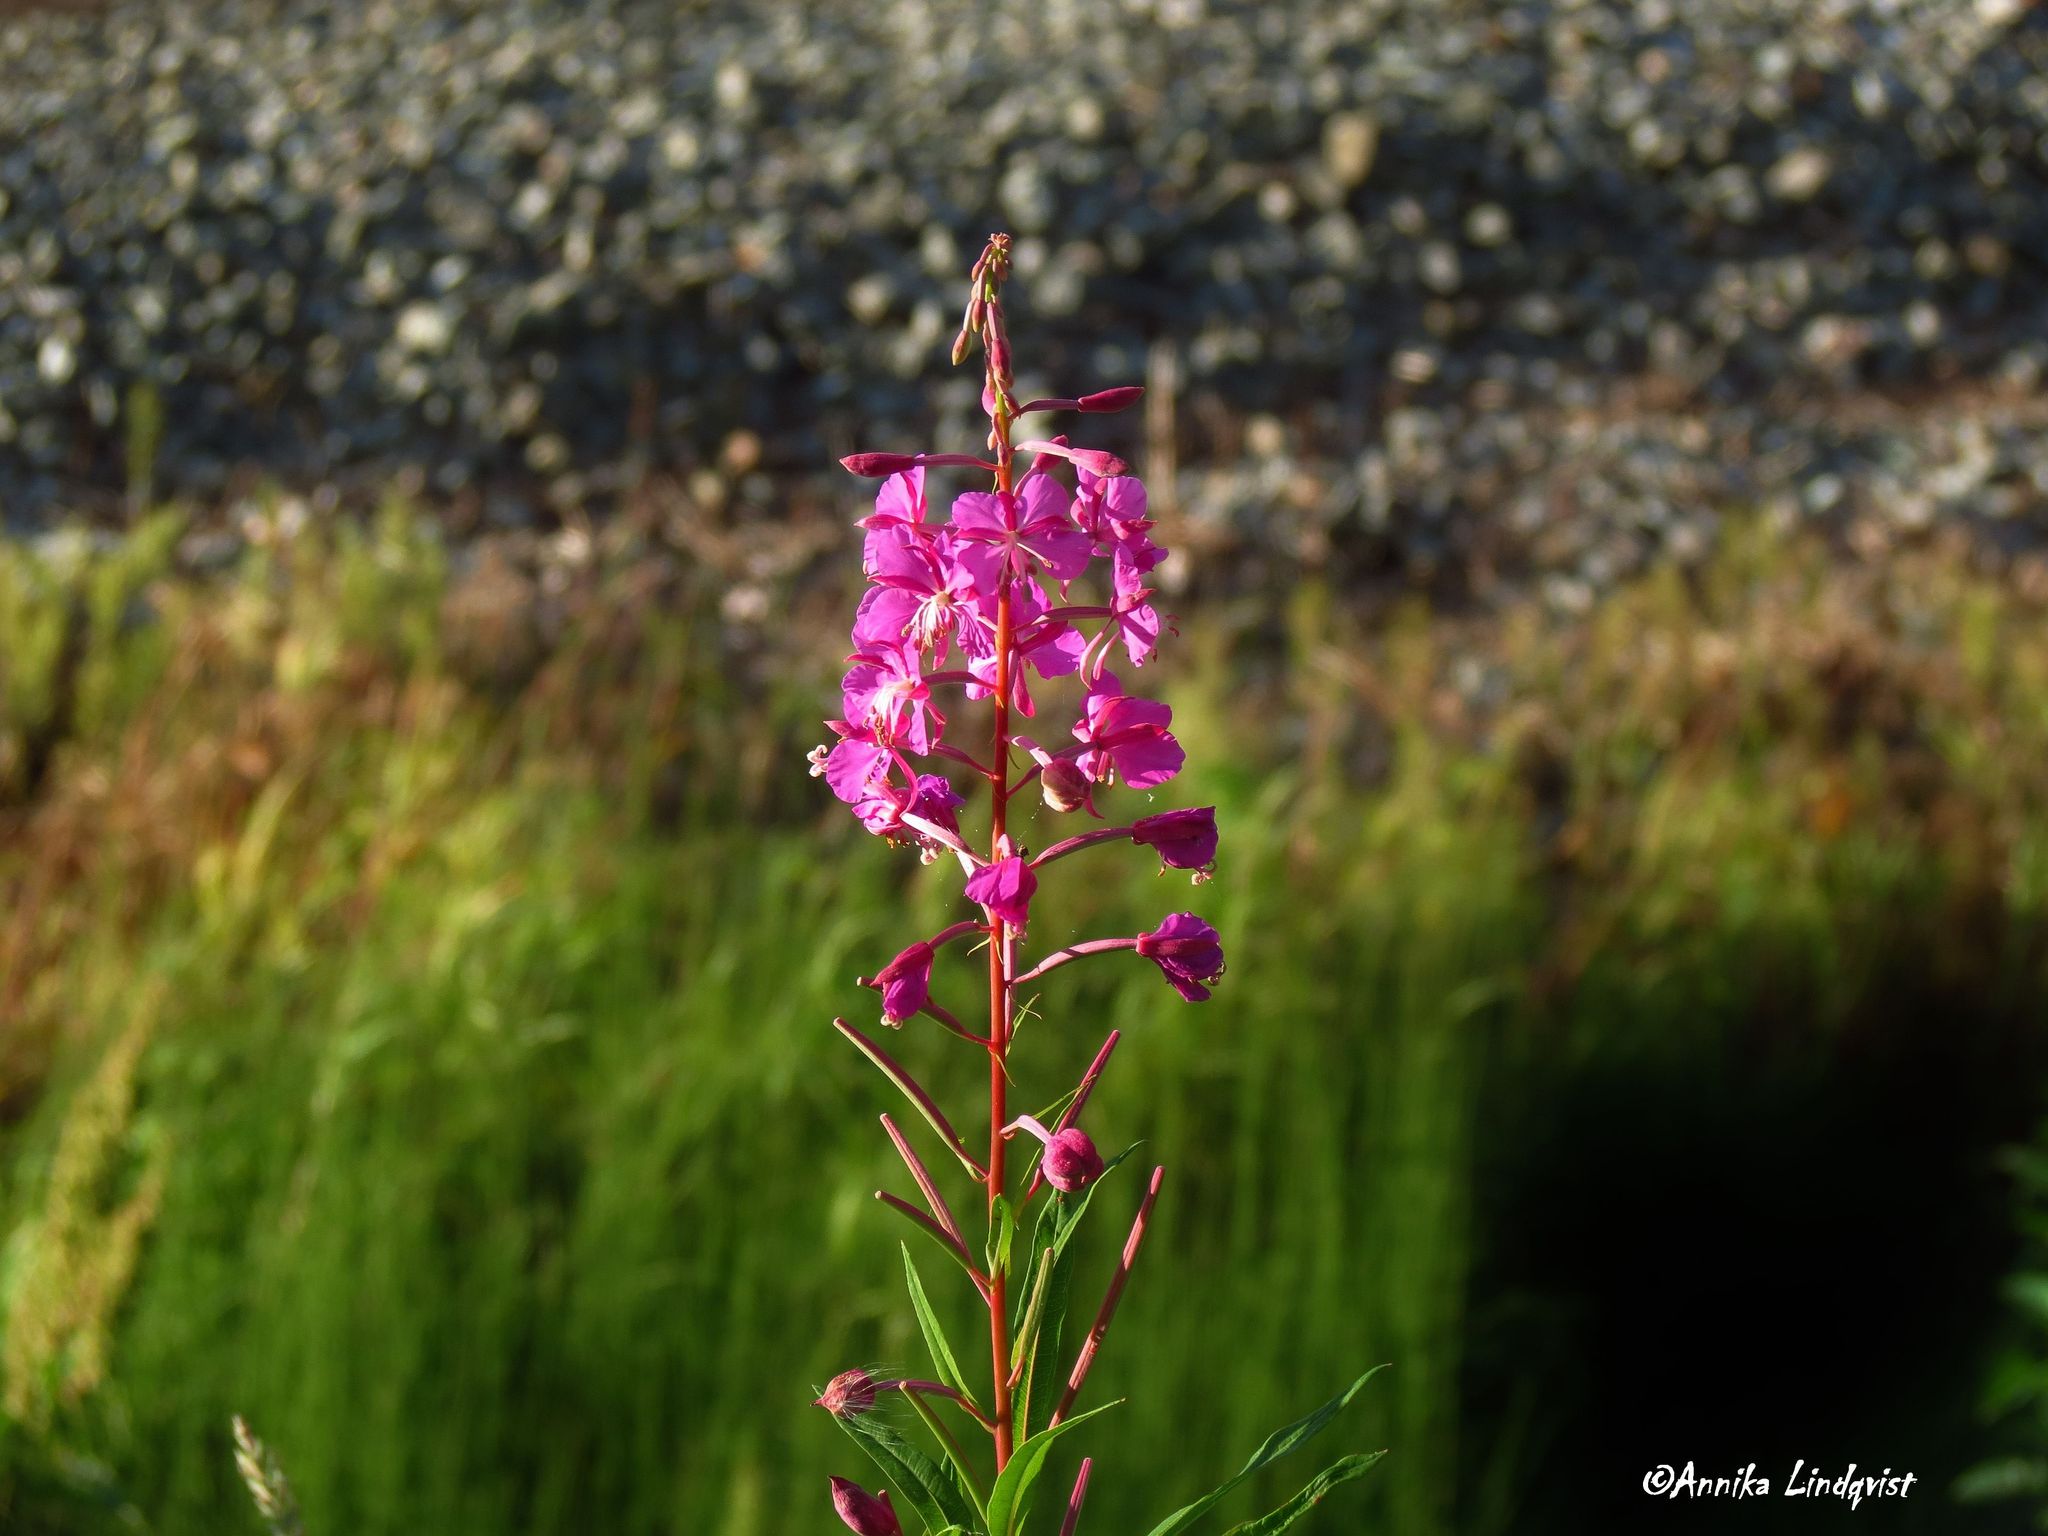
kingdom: Plantae
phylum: Tracheophyta
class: Magnoliopsida
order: Myrtales
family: Onagraceae
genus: Chamaenerion
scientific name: Chamaenerion angustifolium
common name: Fireweed
